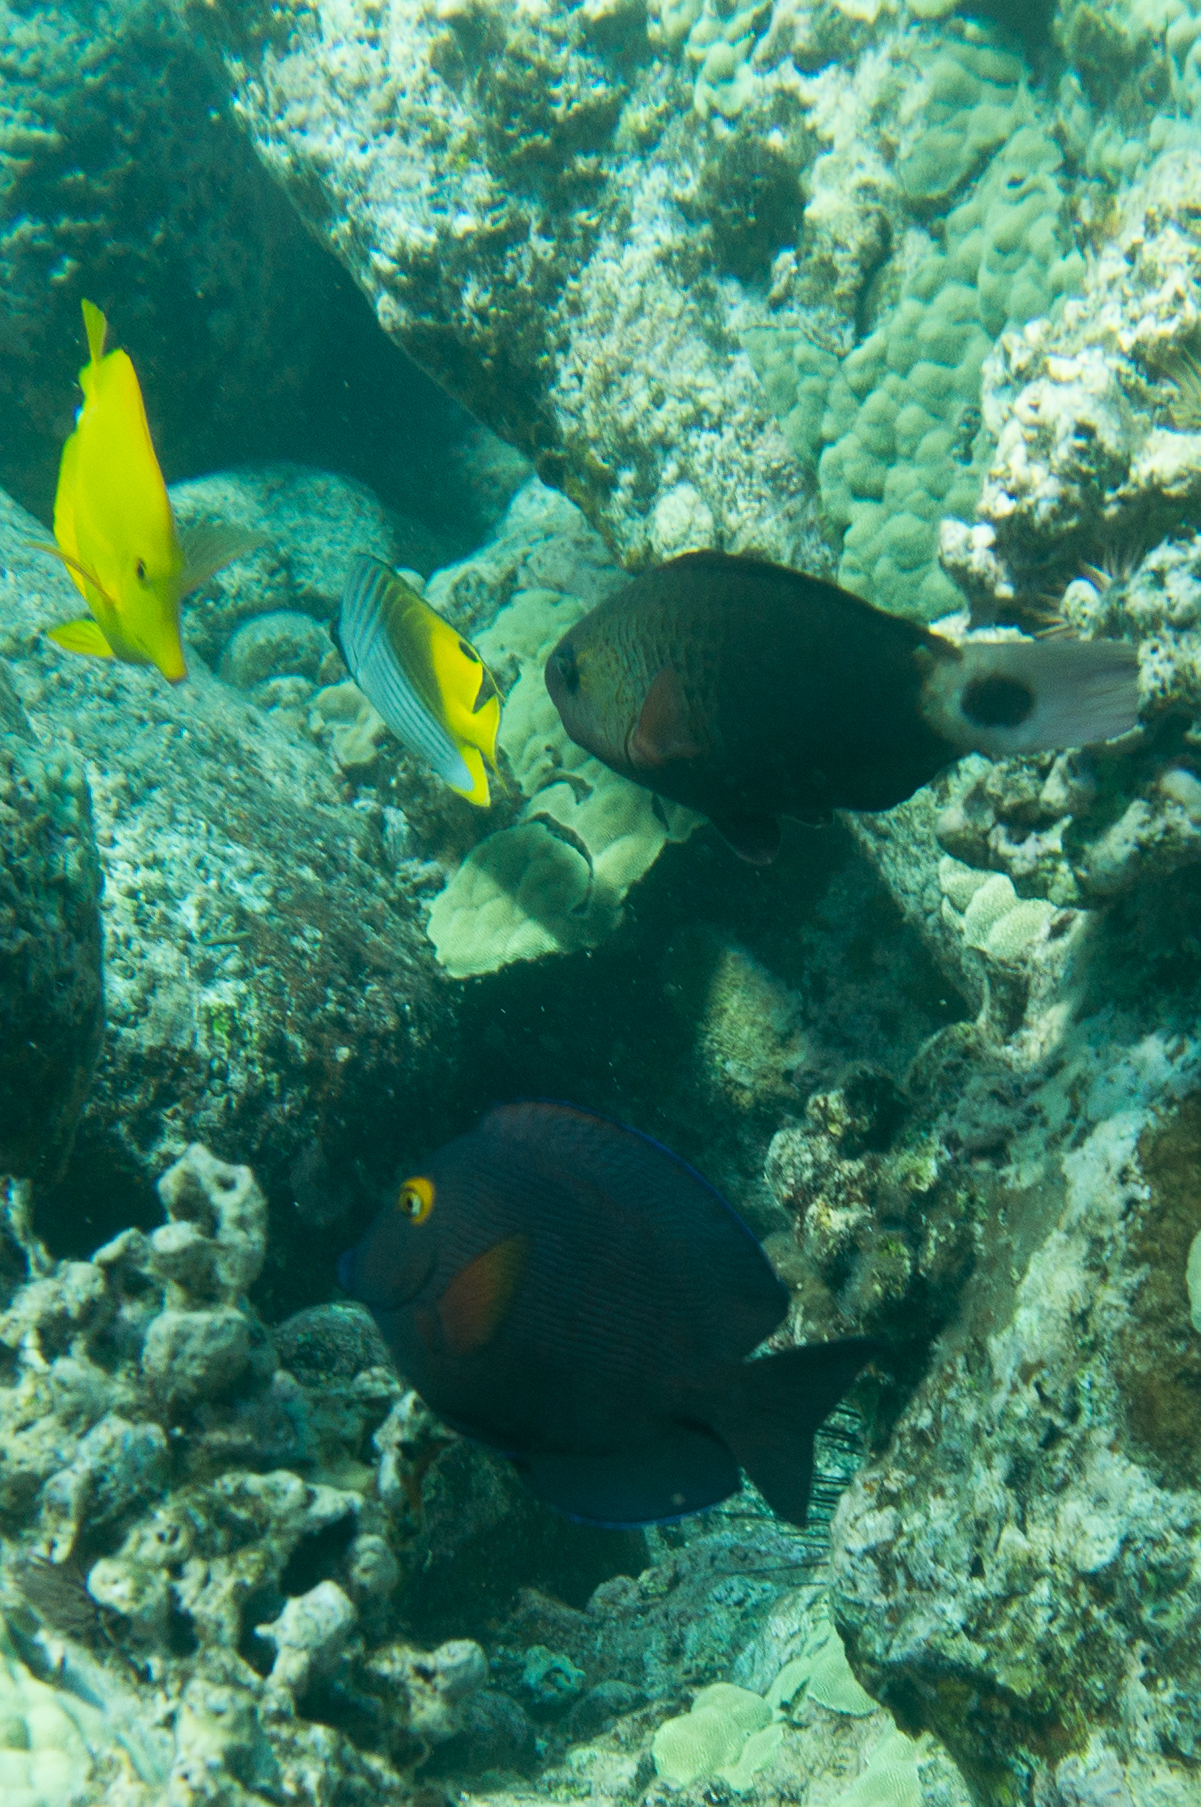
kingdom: Animalia
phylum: Chordata
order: Perciformes
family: Acanthuridae
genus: Zebrasoma
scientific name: Zebrasoma flavescens
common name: Yellow tang
